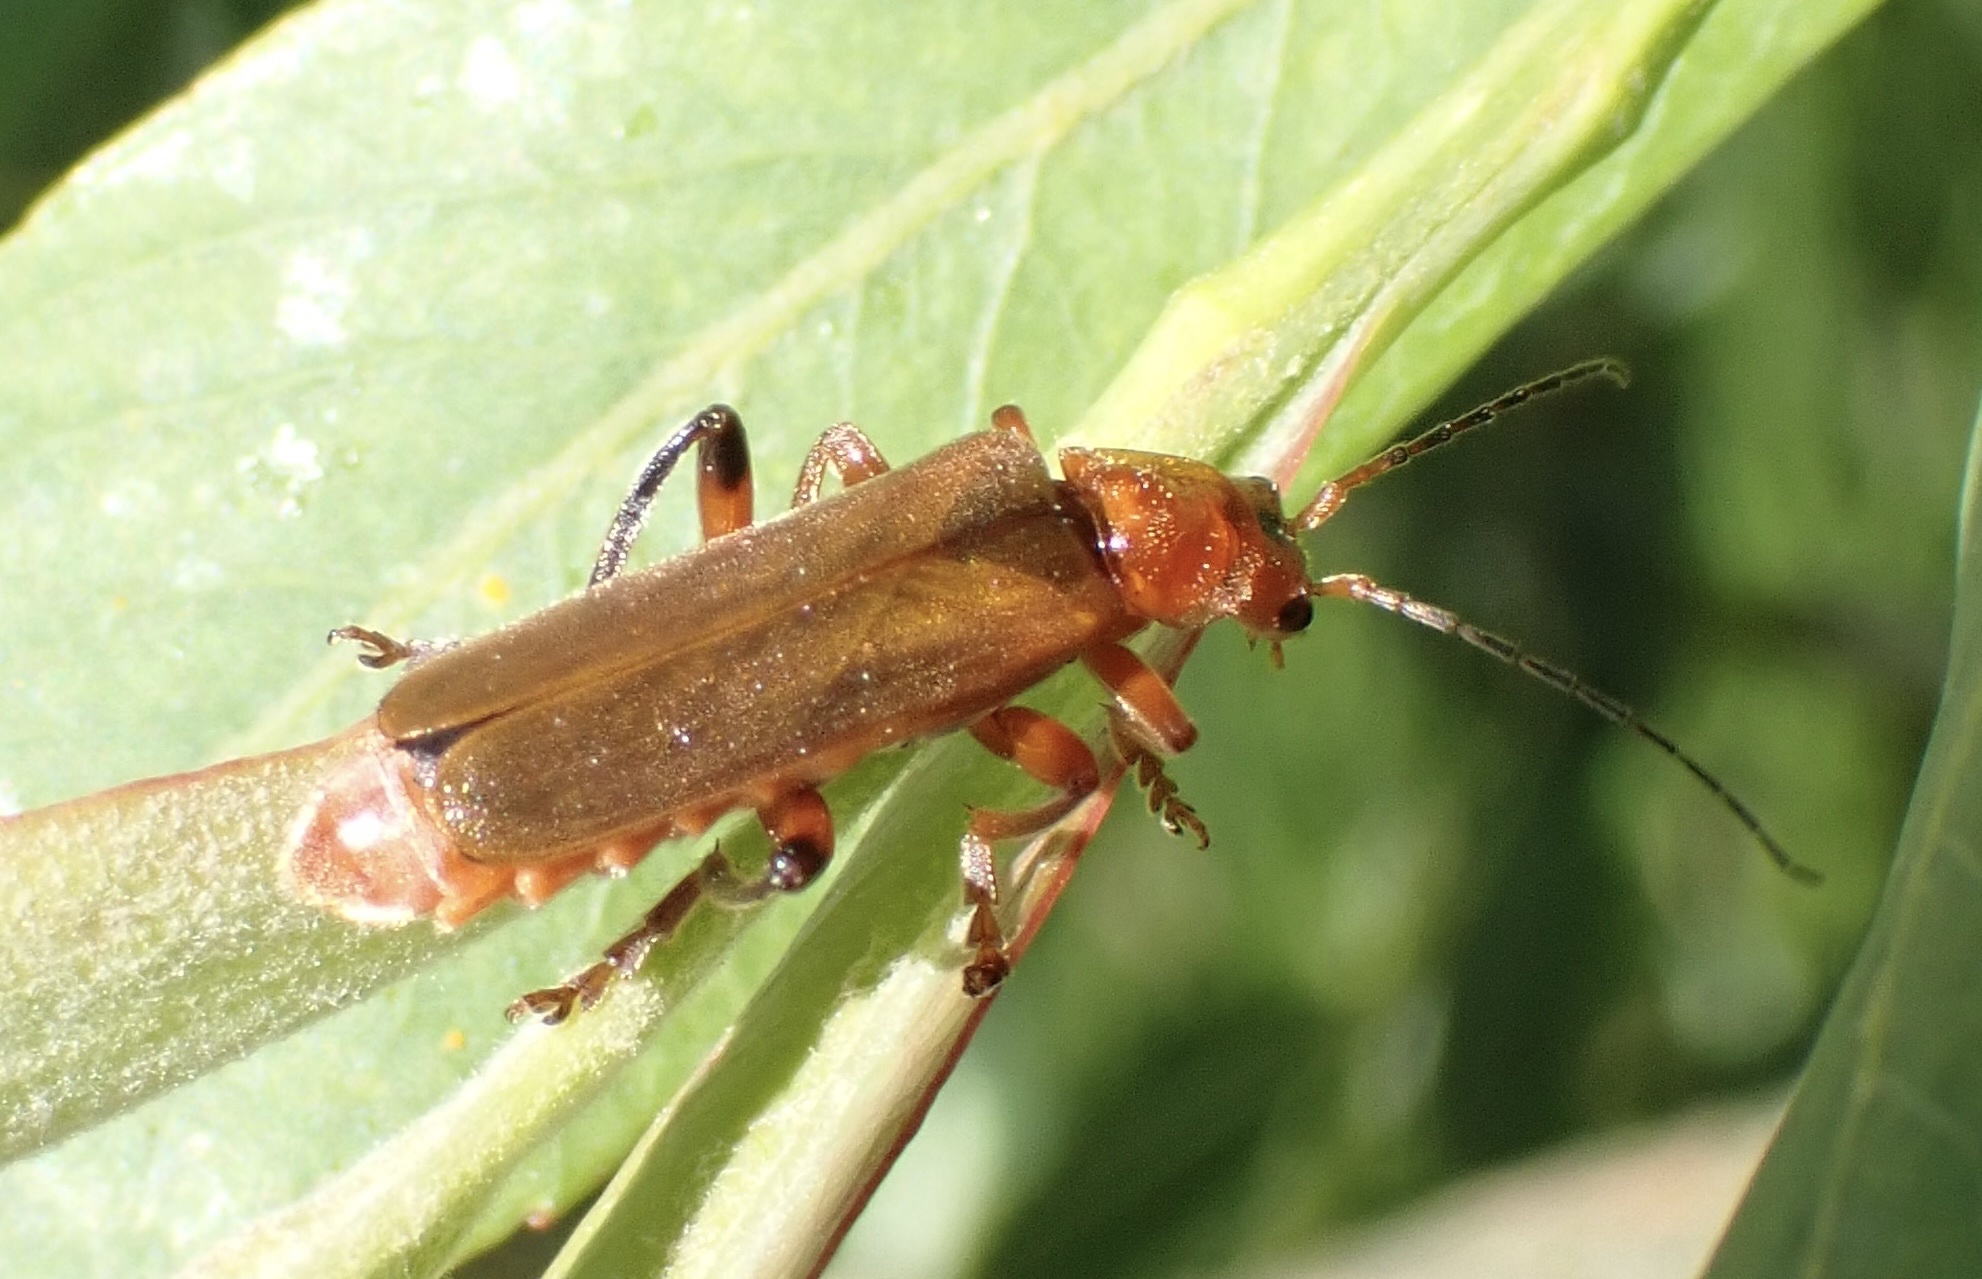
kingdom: Animalia
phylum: Arthropoda
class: Insecta
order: Coleoptera
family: Cantharidae
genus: Cantharis
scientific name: Cantharis livida
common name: Livid soldier beetle
